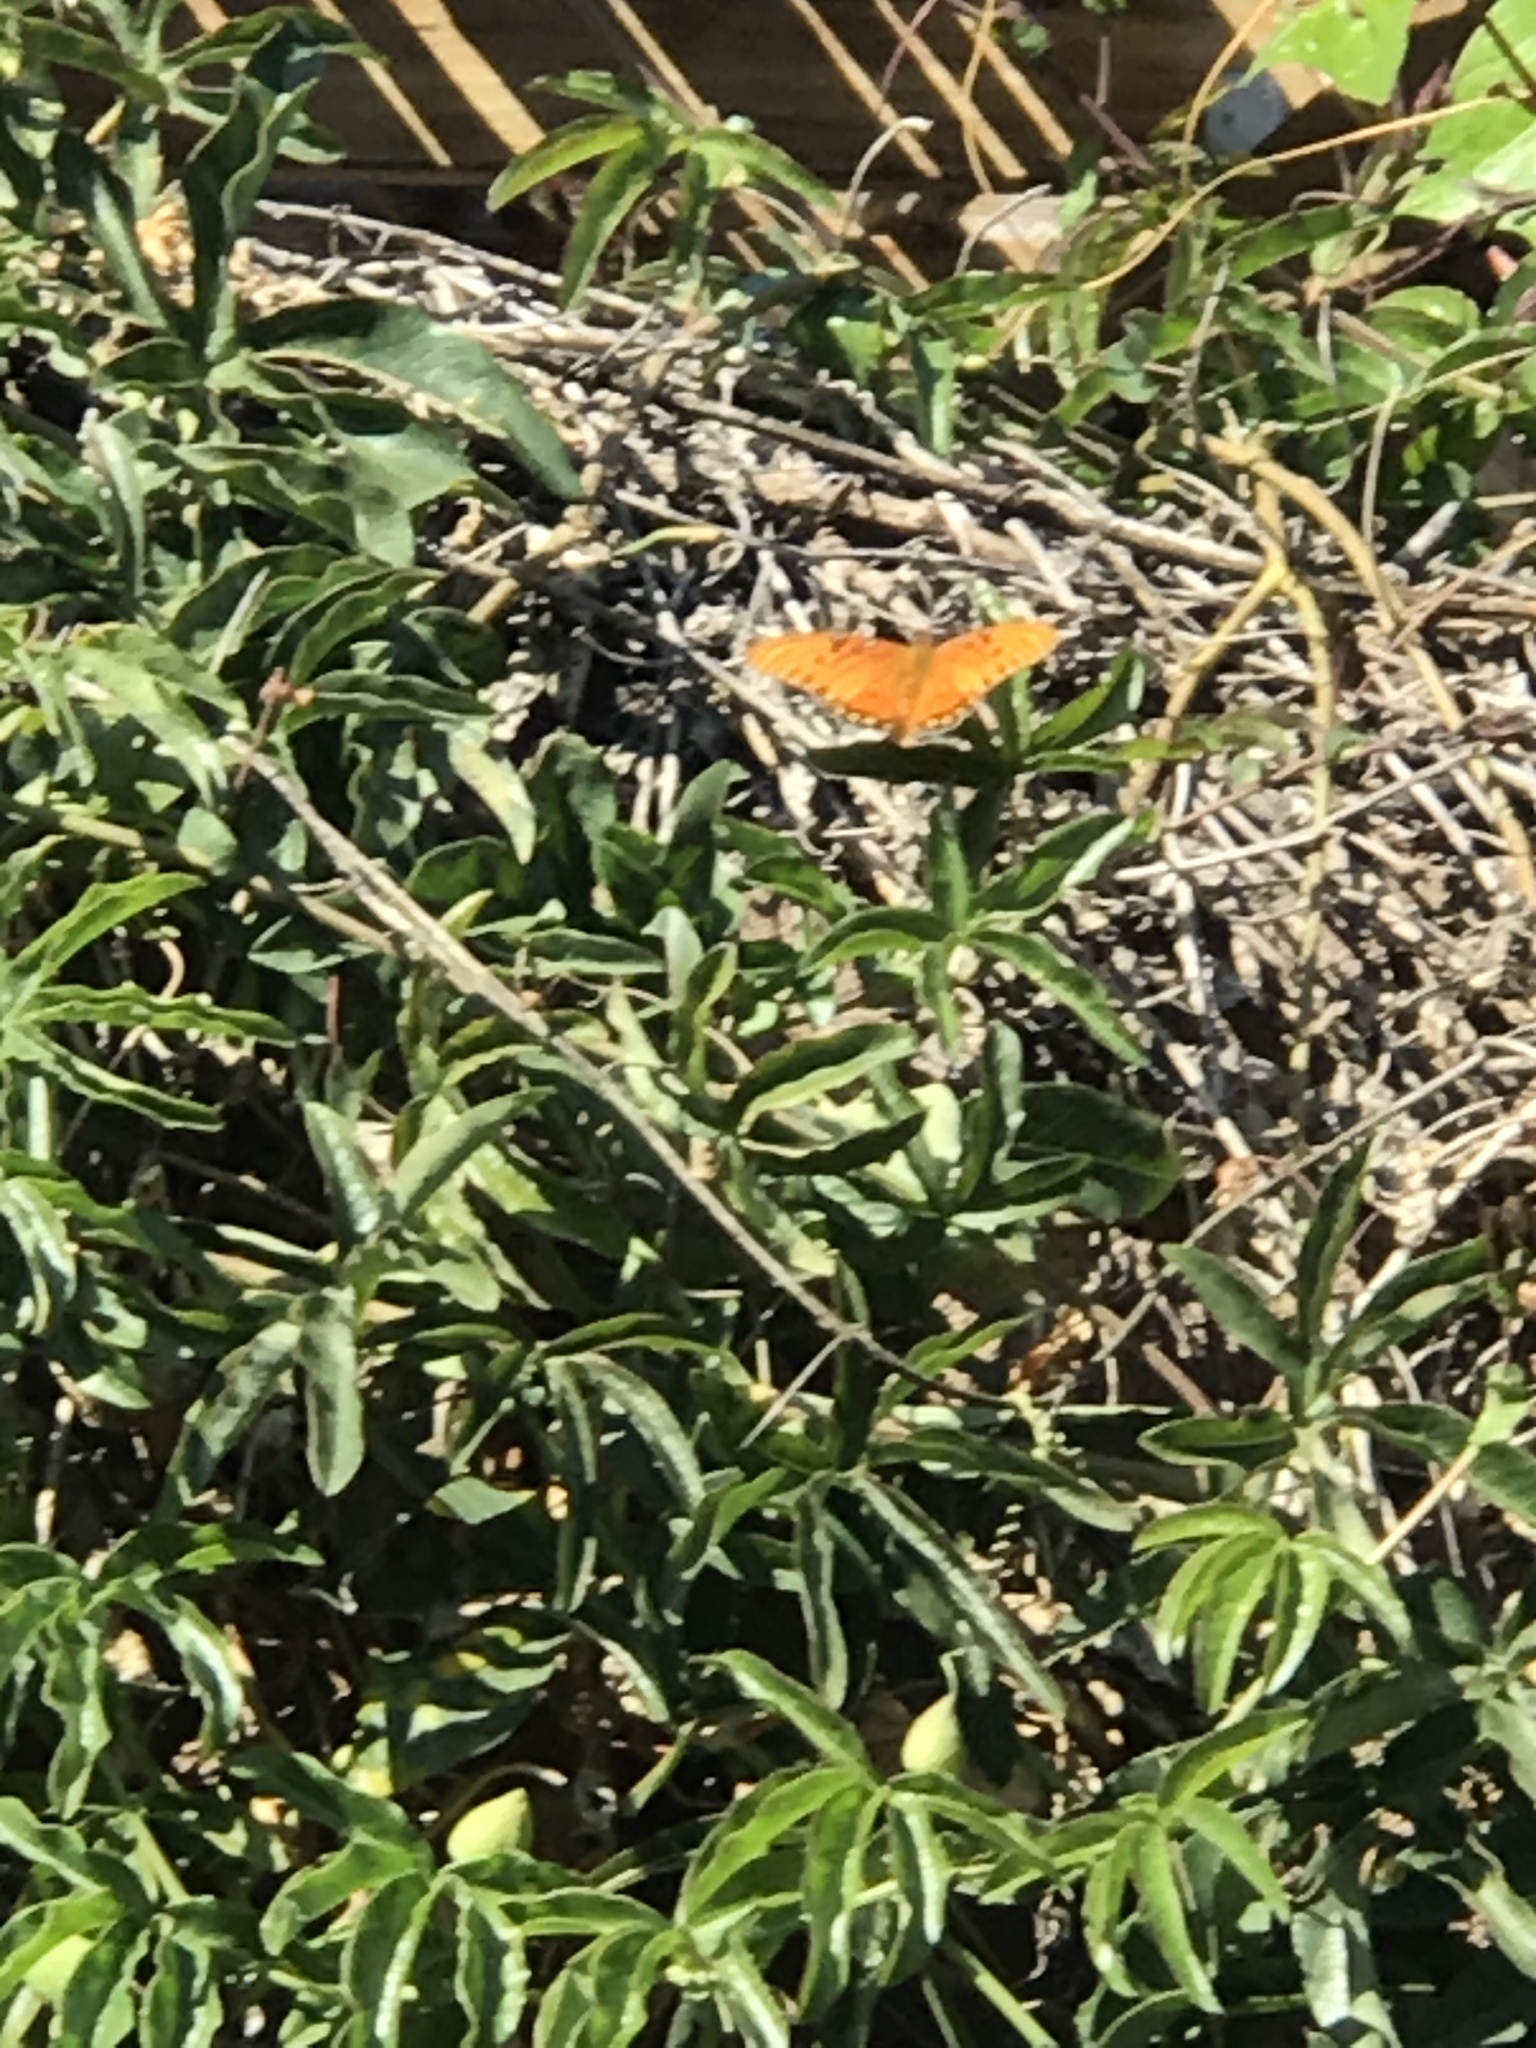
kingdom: Animalia
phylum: Arthropoda
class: Insecta
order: Lepidoptera
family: Nymphalidae
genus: Dione
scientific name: Dione vanillae
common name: Gulf fritillary
